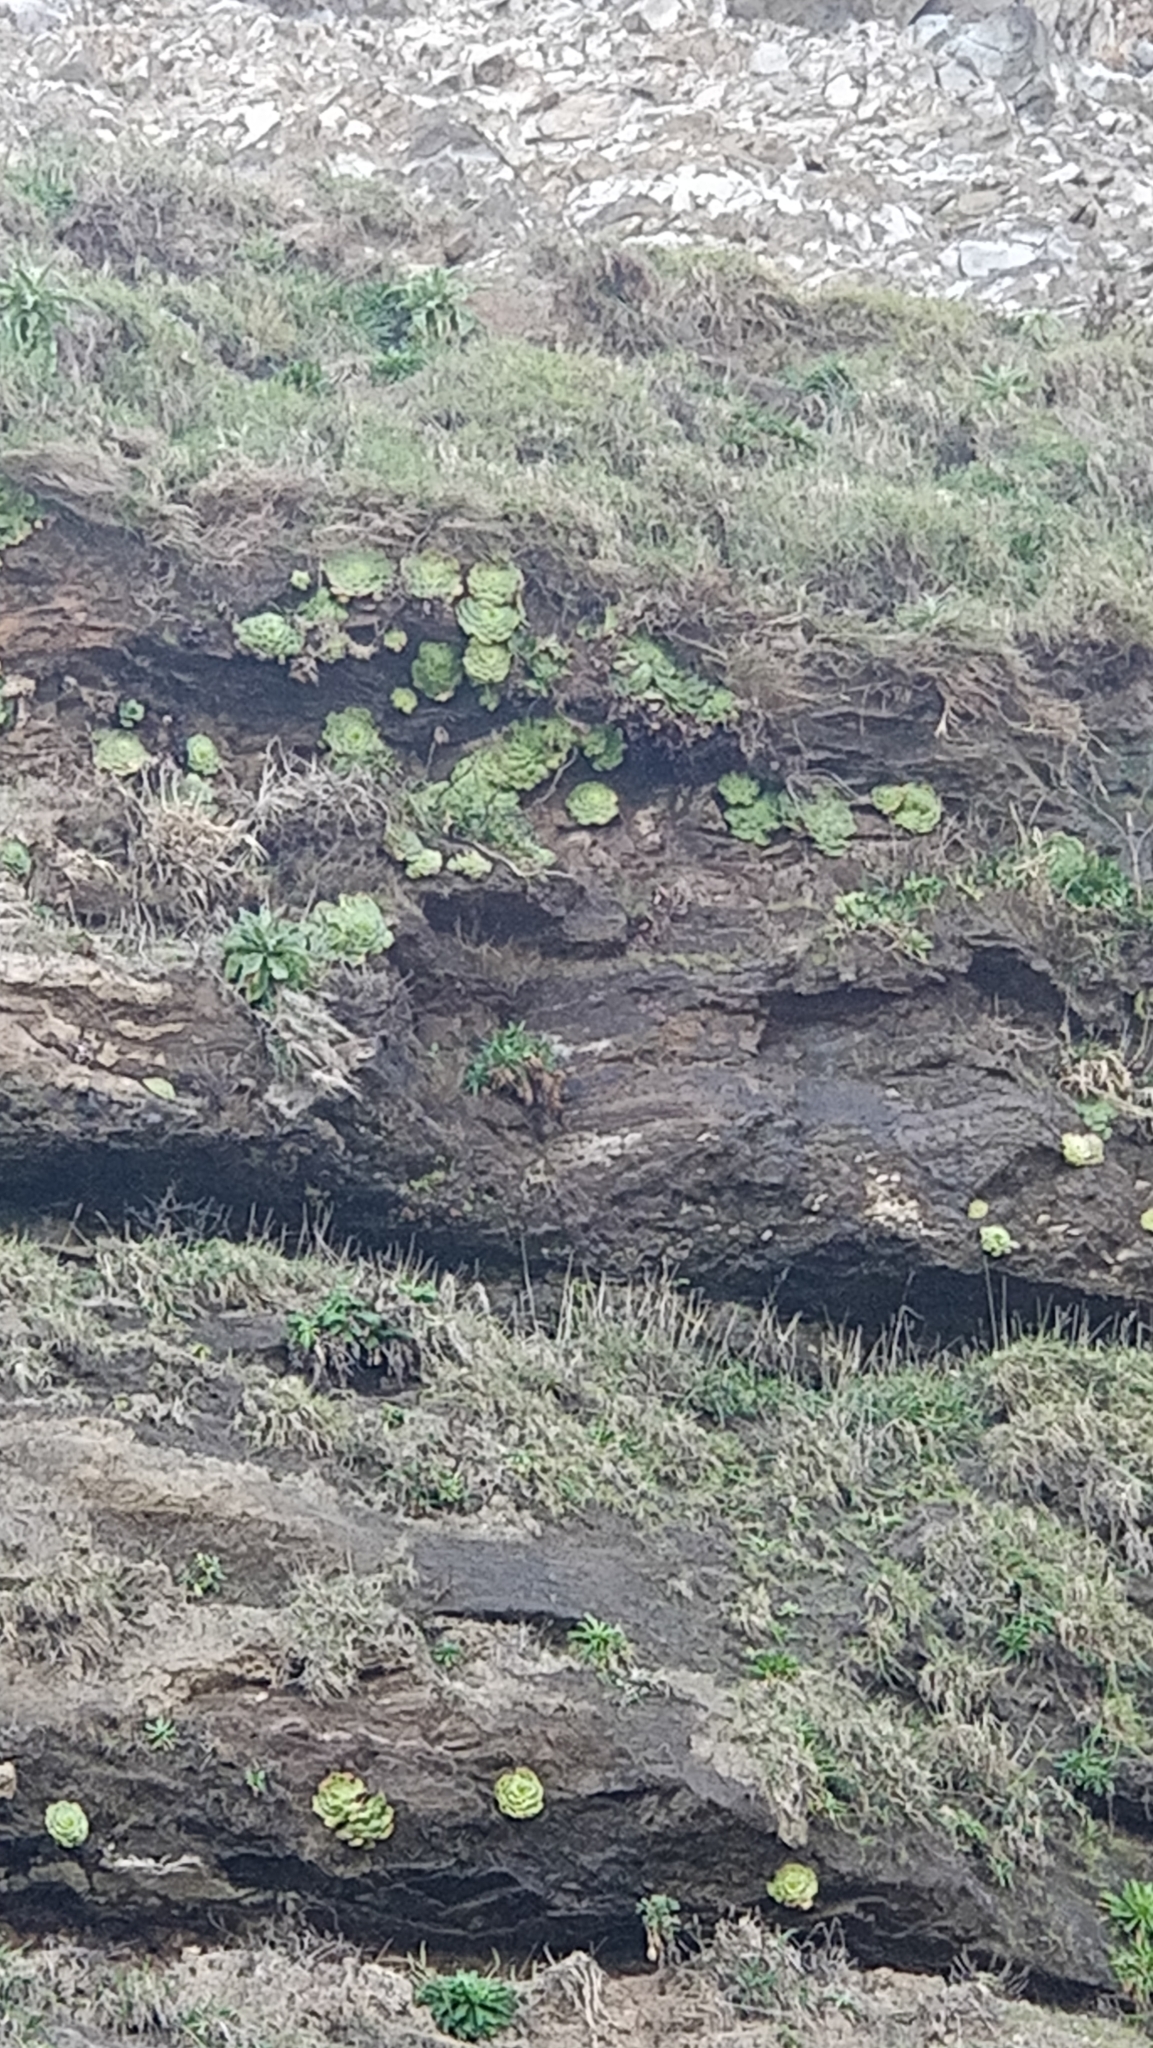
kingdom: Plantae
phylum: Tracheophyta
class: Magnoliopsida
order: Saxifragales
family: Crassulaceae
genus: Aeonium
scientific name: Aeonium glandulosum
